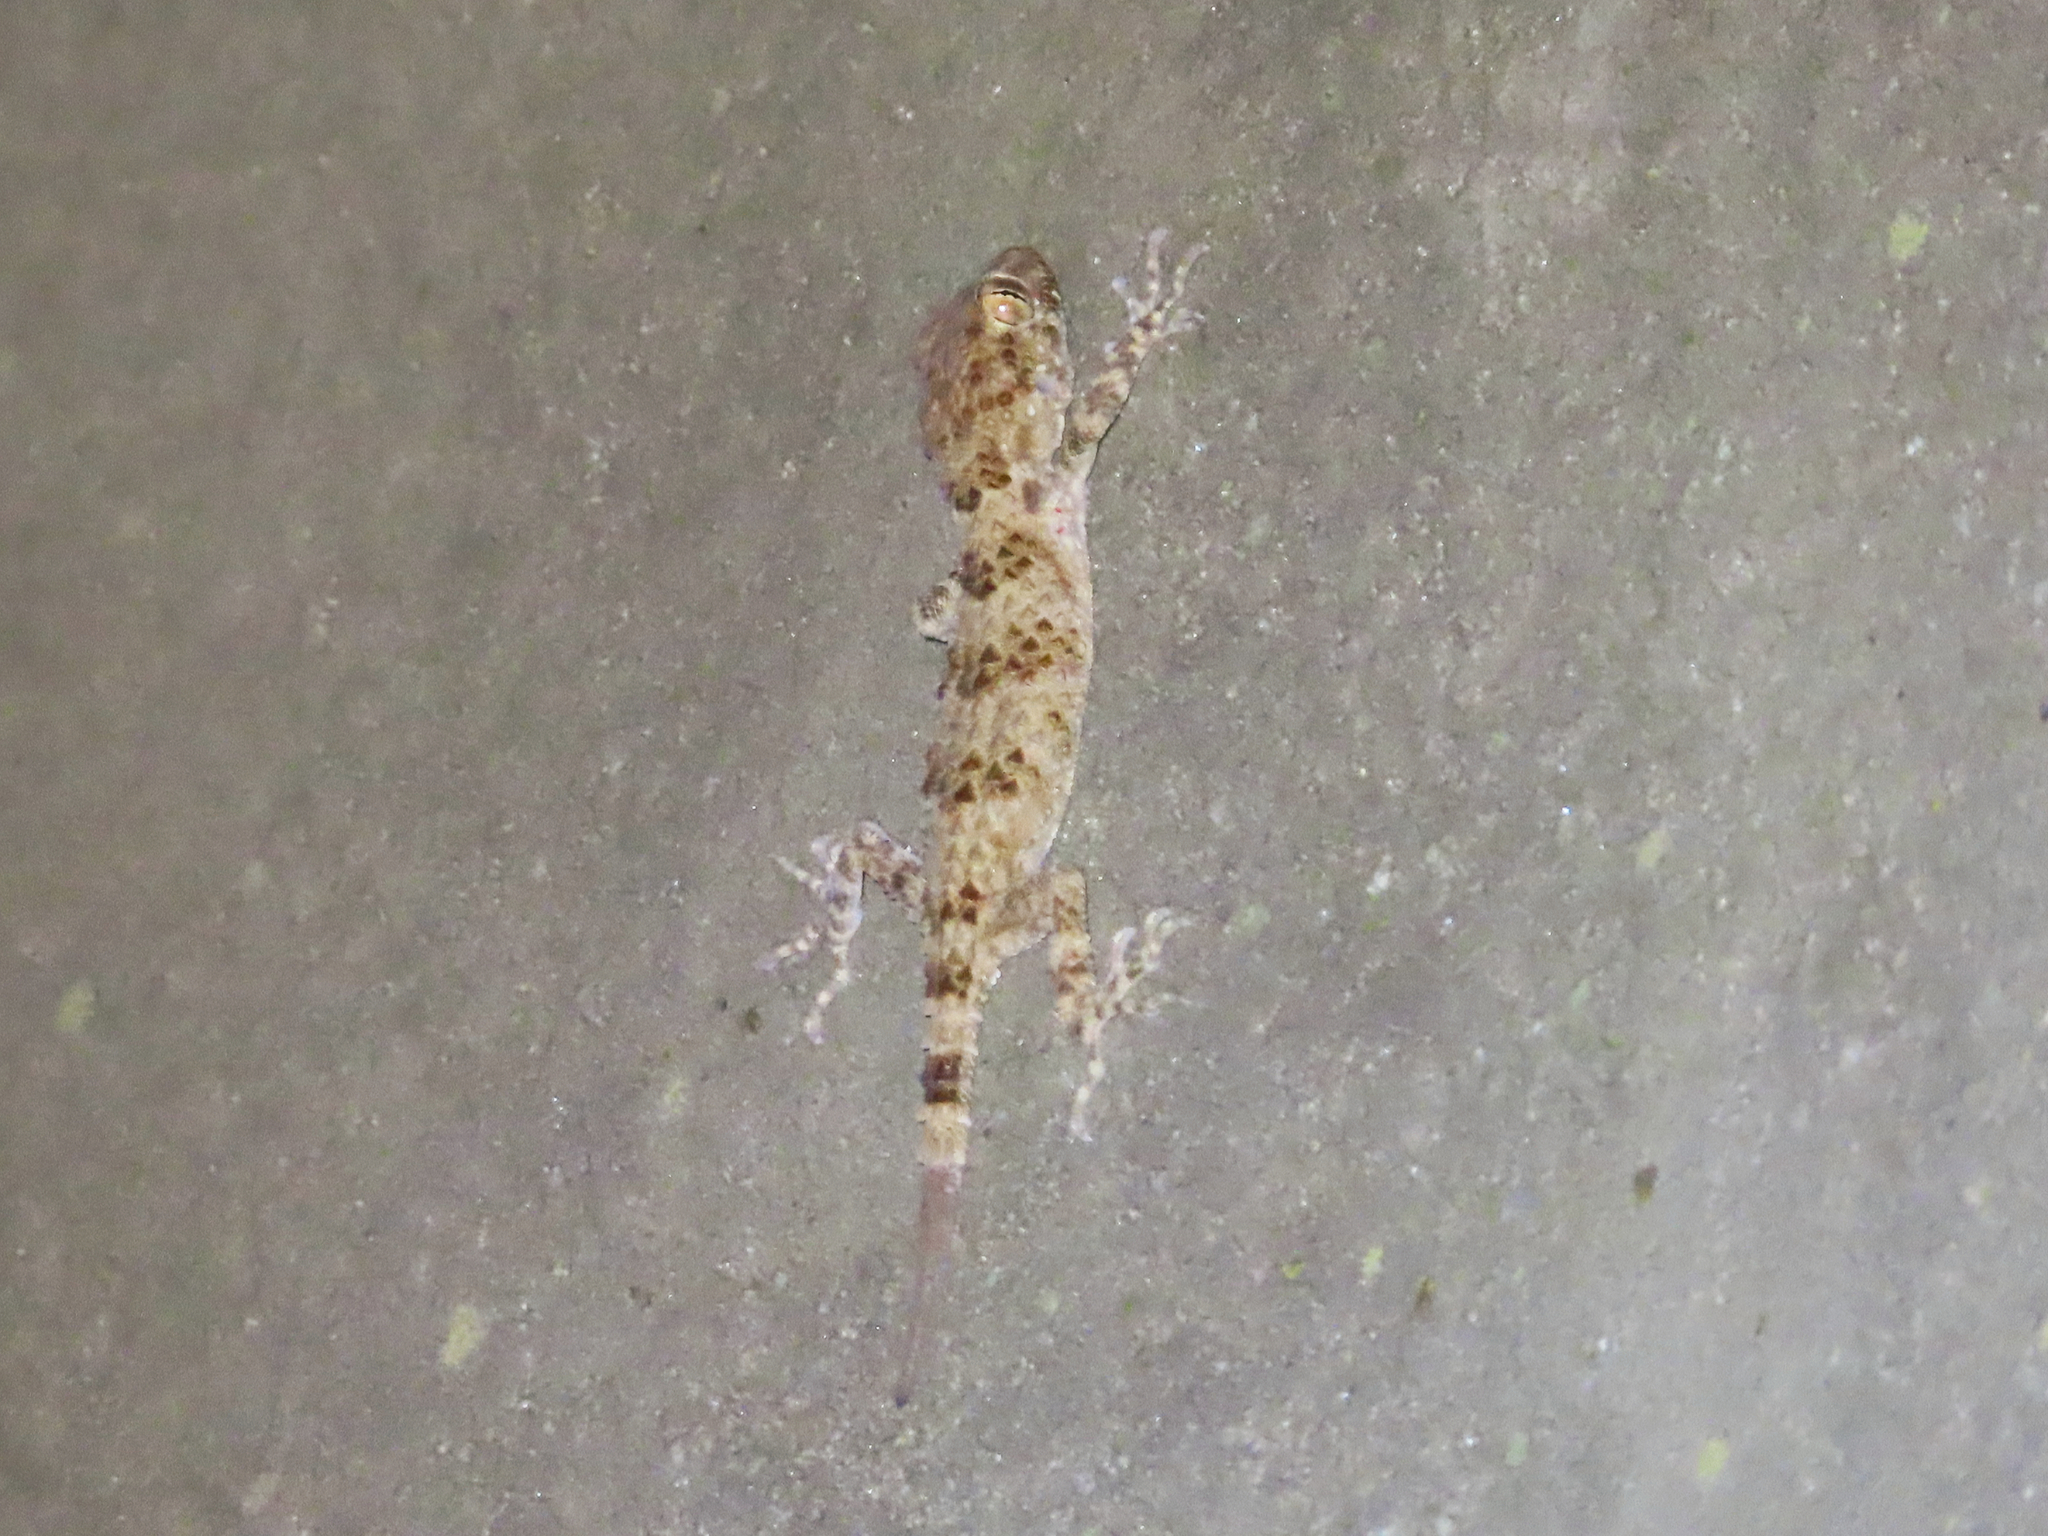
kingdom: Animalia
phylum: Chordata
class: Squamata
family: Gekkonidae
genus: Tenuidactylus
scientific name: Tenuidactylus caspius
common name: Caspian bent-toed gecko
